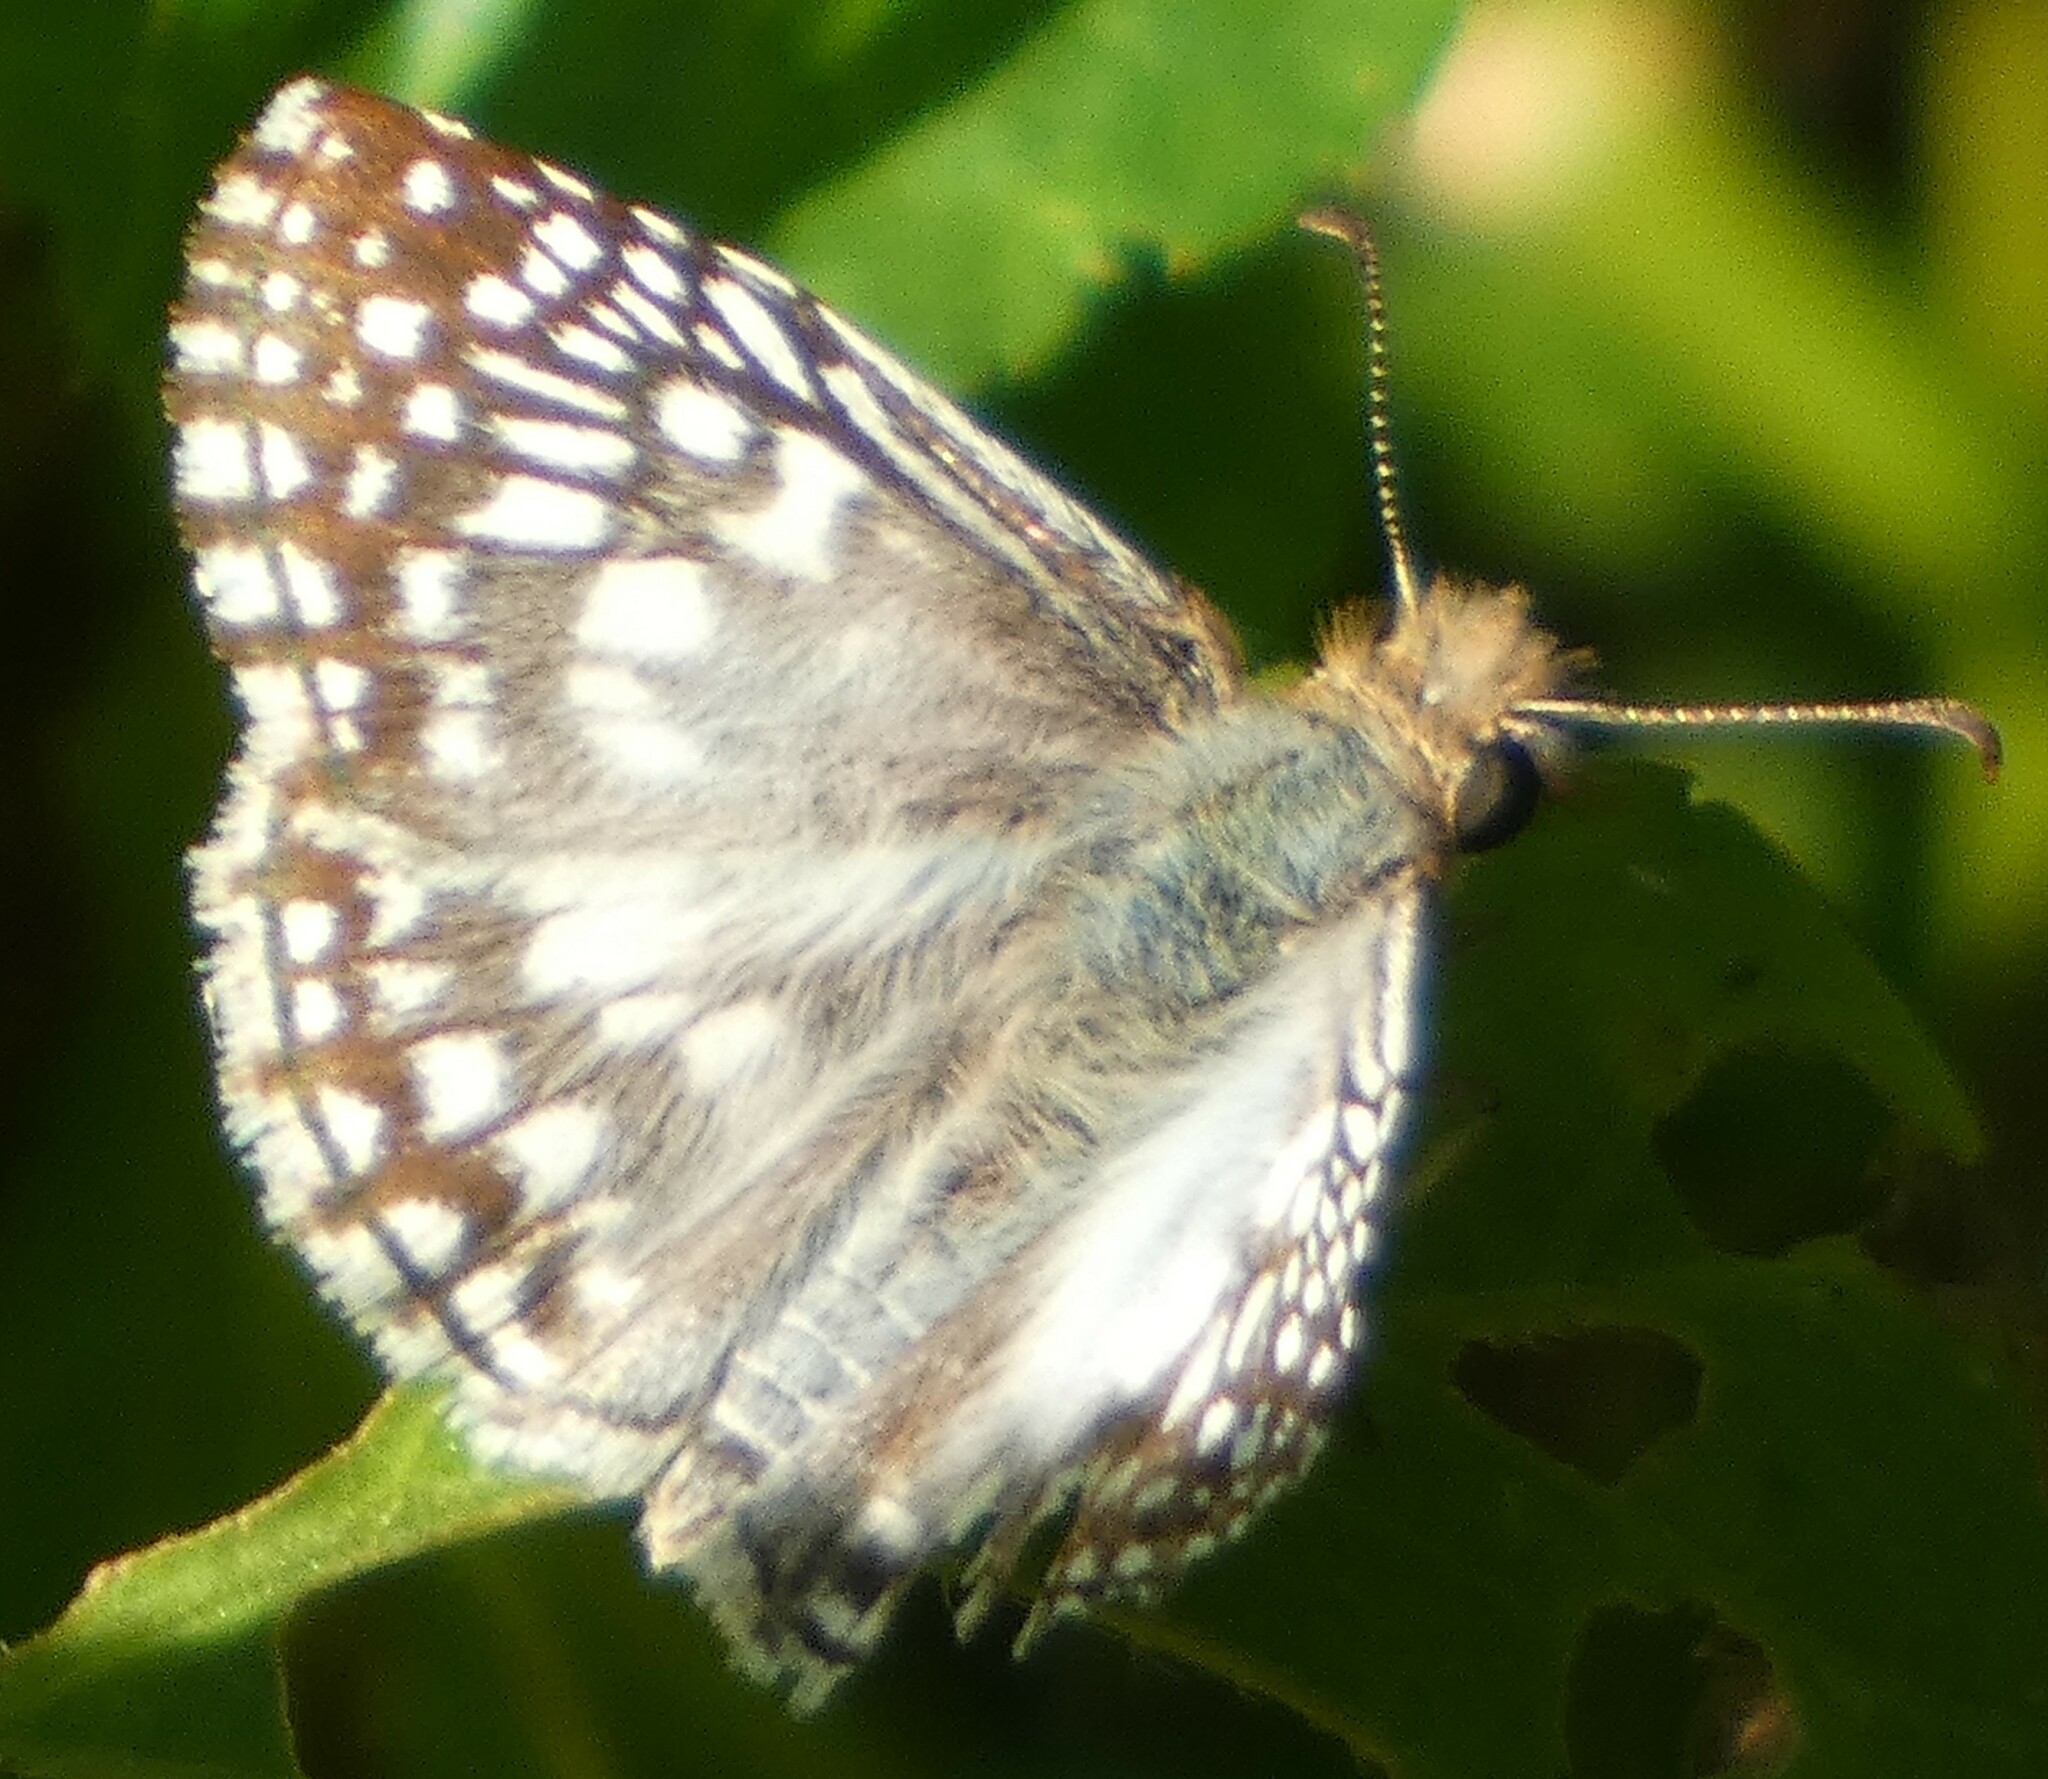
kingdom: Animalia
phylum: Arthropoda
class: Insecta
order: Lepidoptera
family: Hesperiidae
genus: Pyrgus
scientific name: Pyrgus oileus
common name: Tropical checkered-skipper
